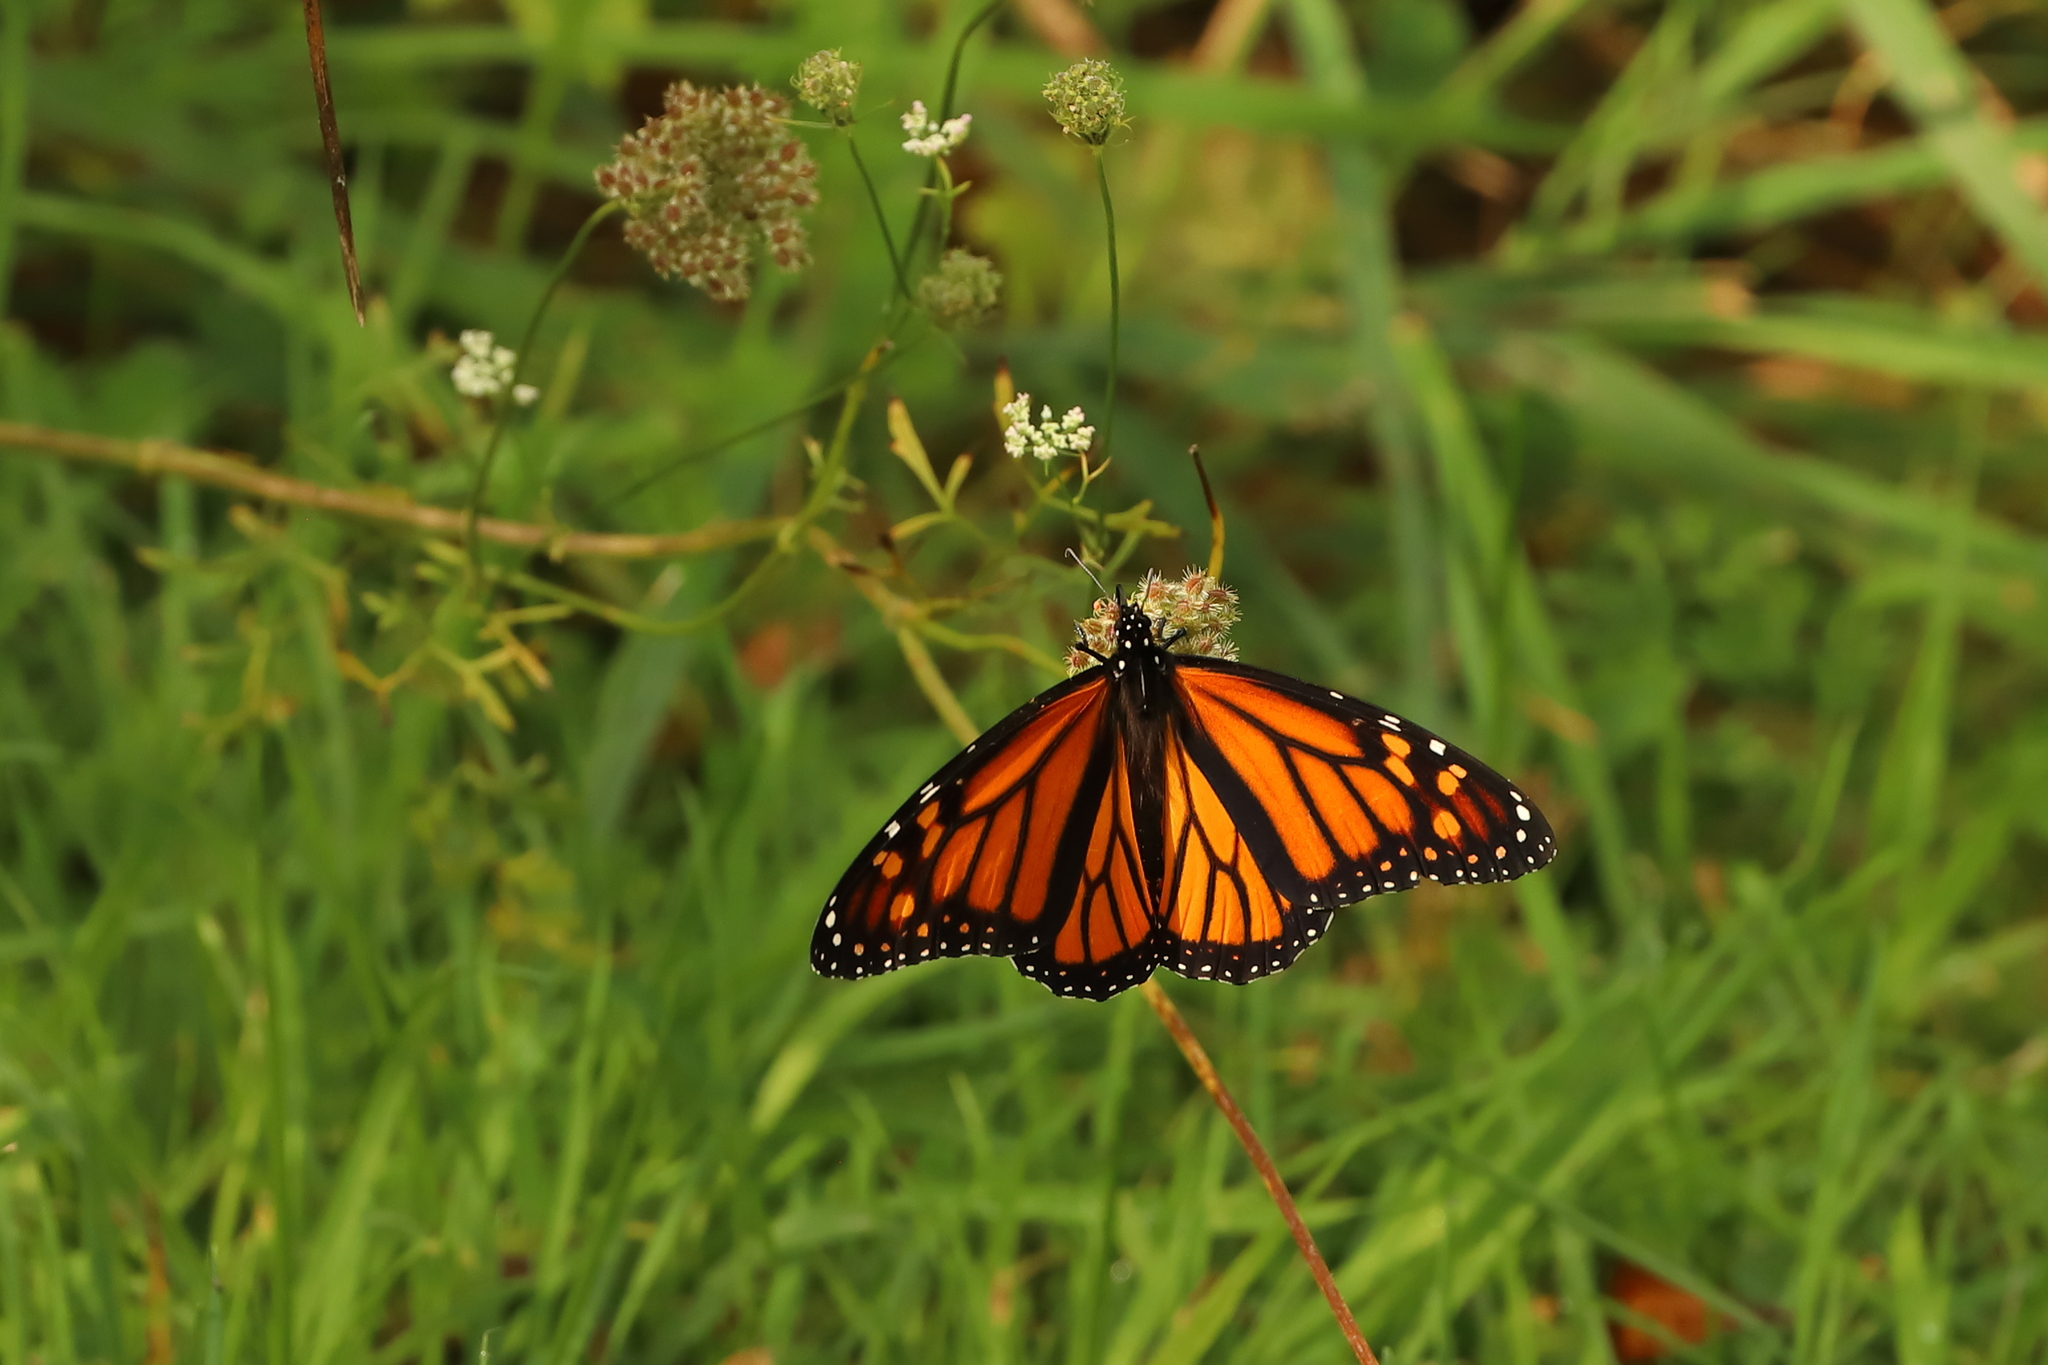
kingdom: Animalia
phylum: Arthropoda
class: Insecta
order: Lepidoptera
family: Nymphalidae
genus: Danaus
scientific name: Danaus plexippus
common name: Monarch
